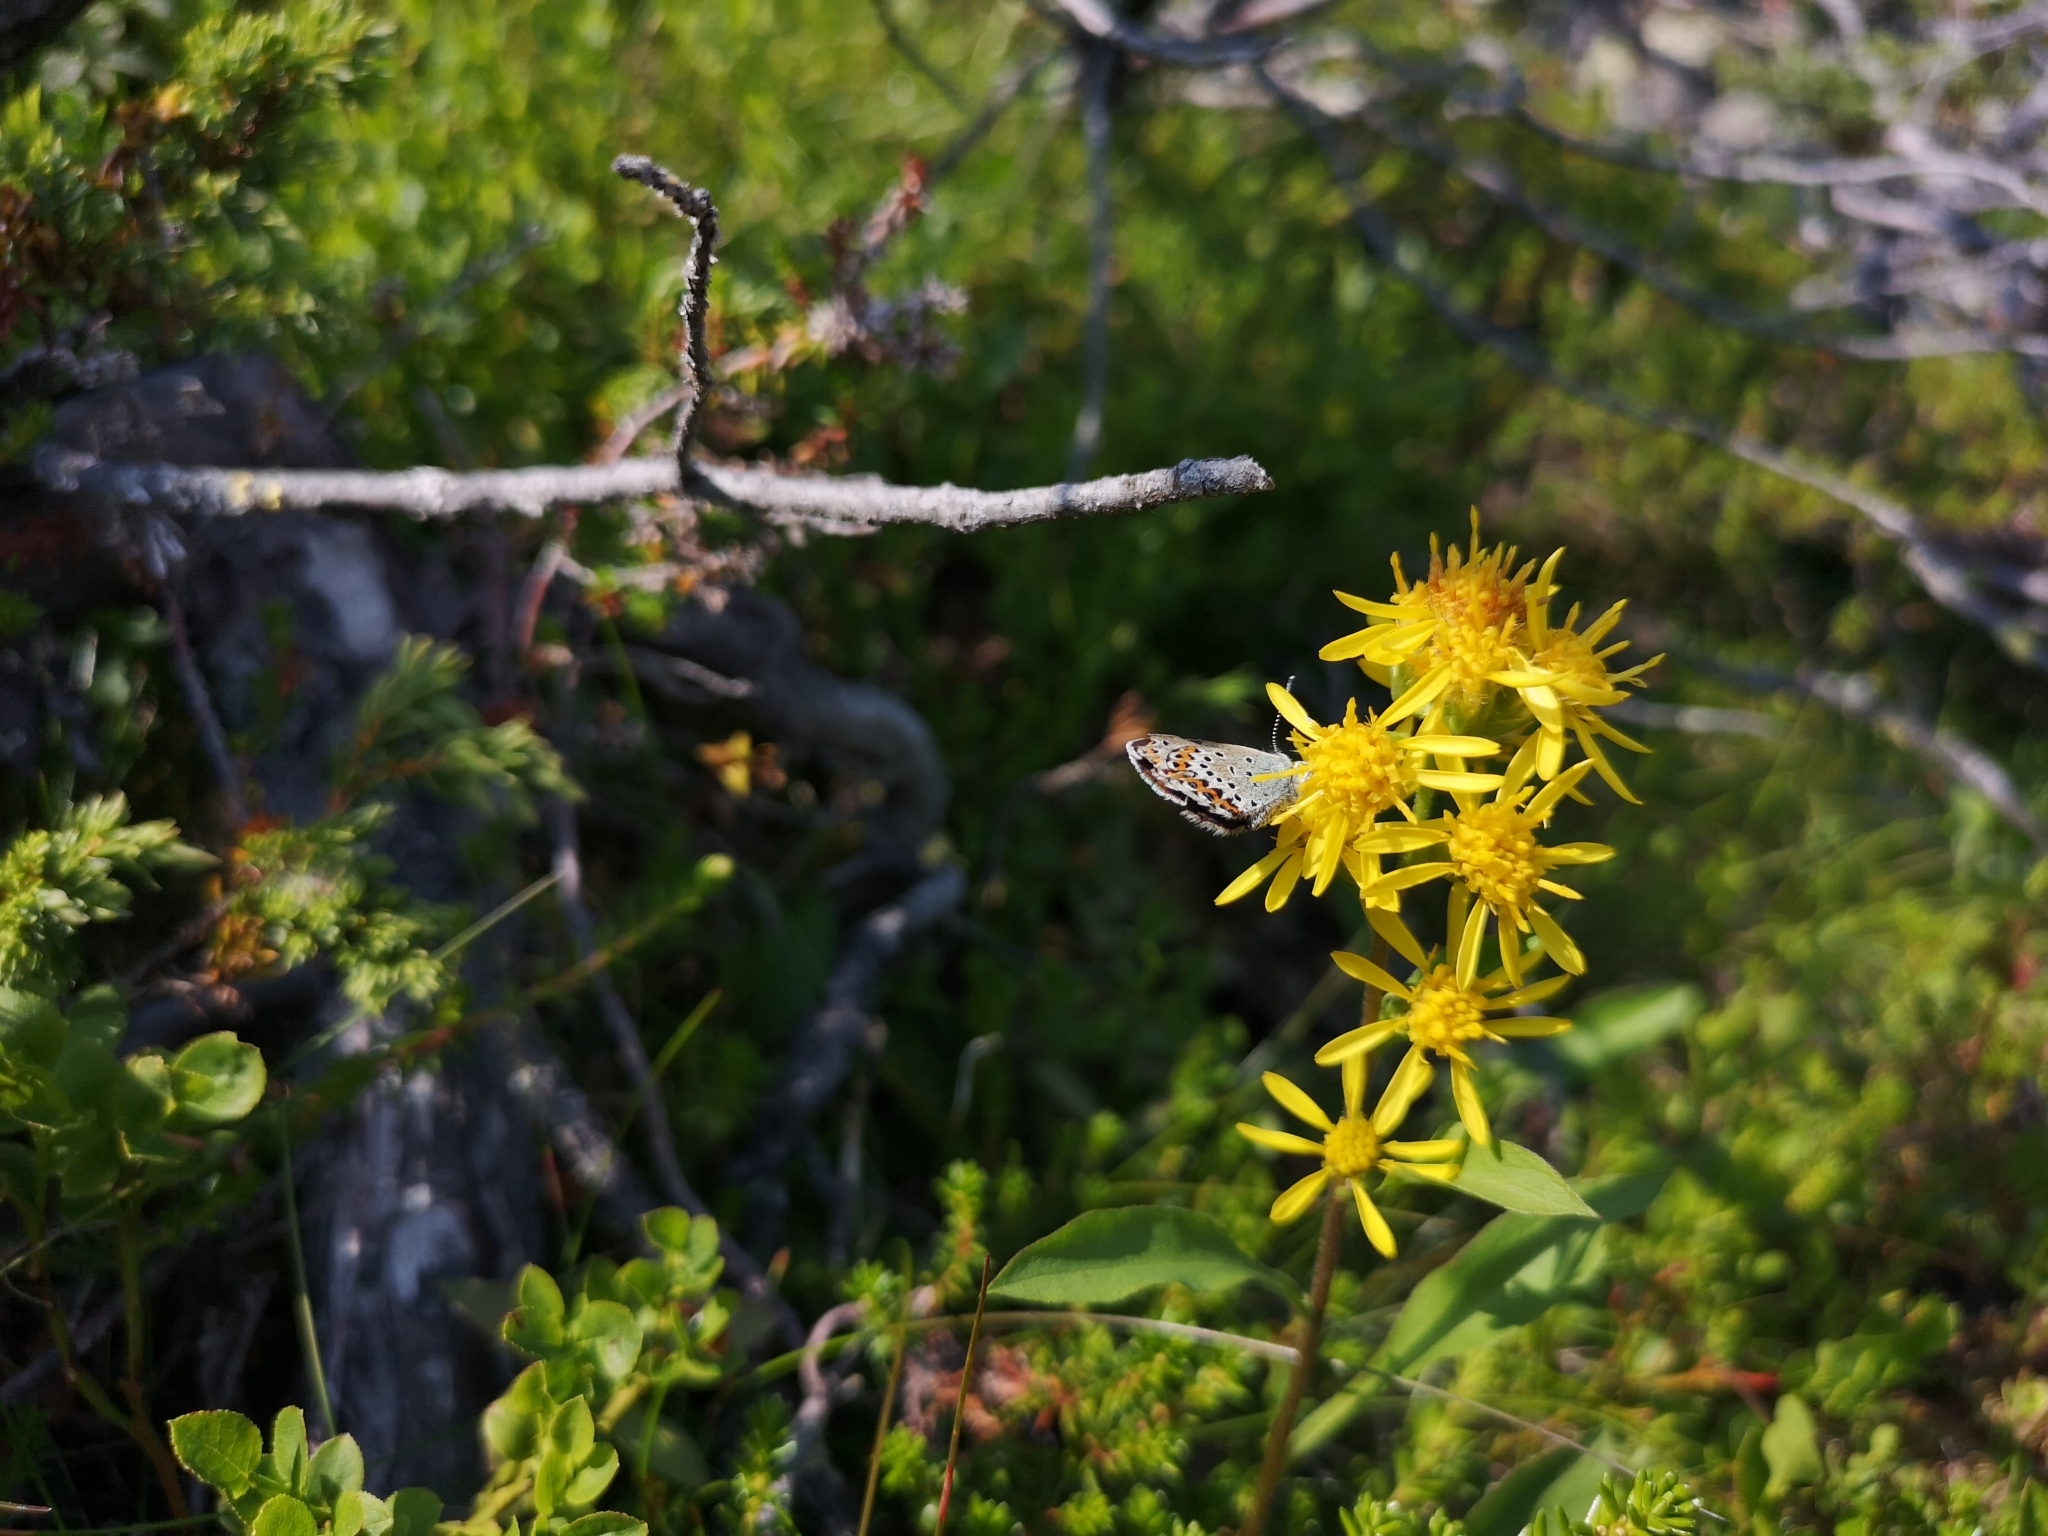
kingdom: Plantae
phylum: Tracheophyta
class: Magnoliopsida
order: Asterales
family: Asteraceae
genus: Solidago
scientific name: Solidago virgaurea
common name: Goldenrod
